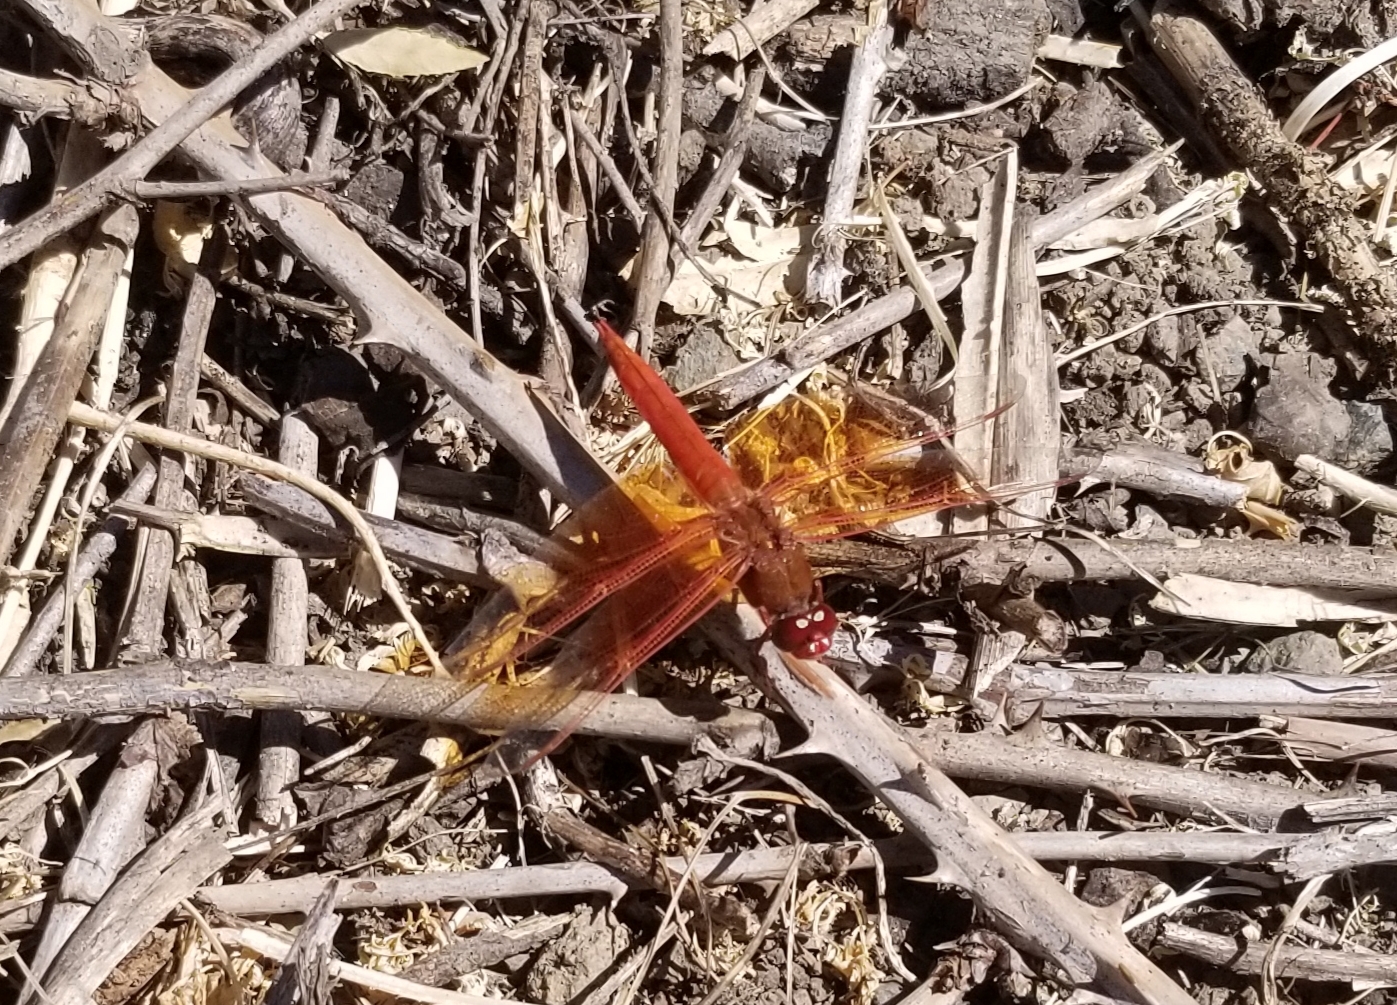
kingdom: Animalia
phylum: Arthropoda
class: Insecta
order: Odonata
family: Libellulidae
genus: Libellula
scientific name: Libellula saturata
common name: Flame skimmer
